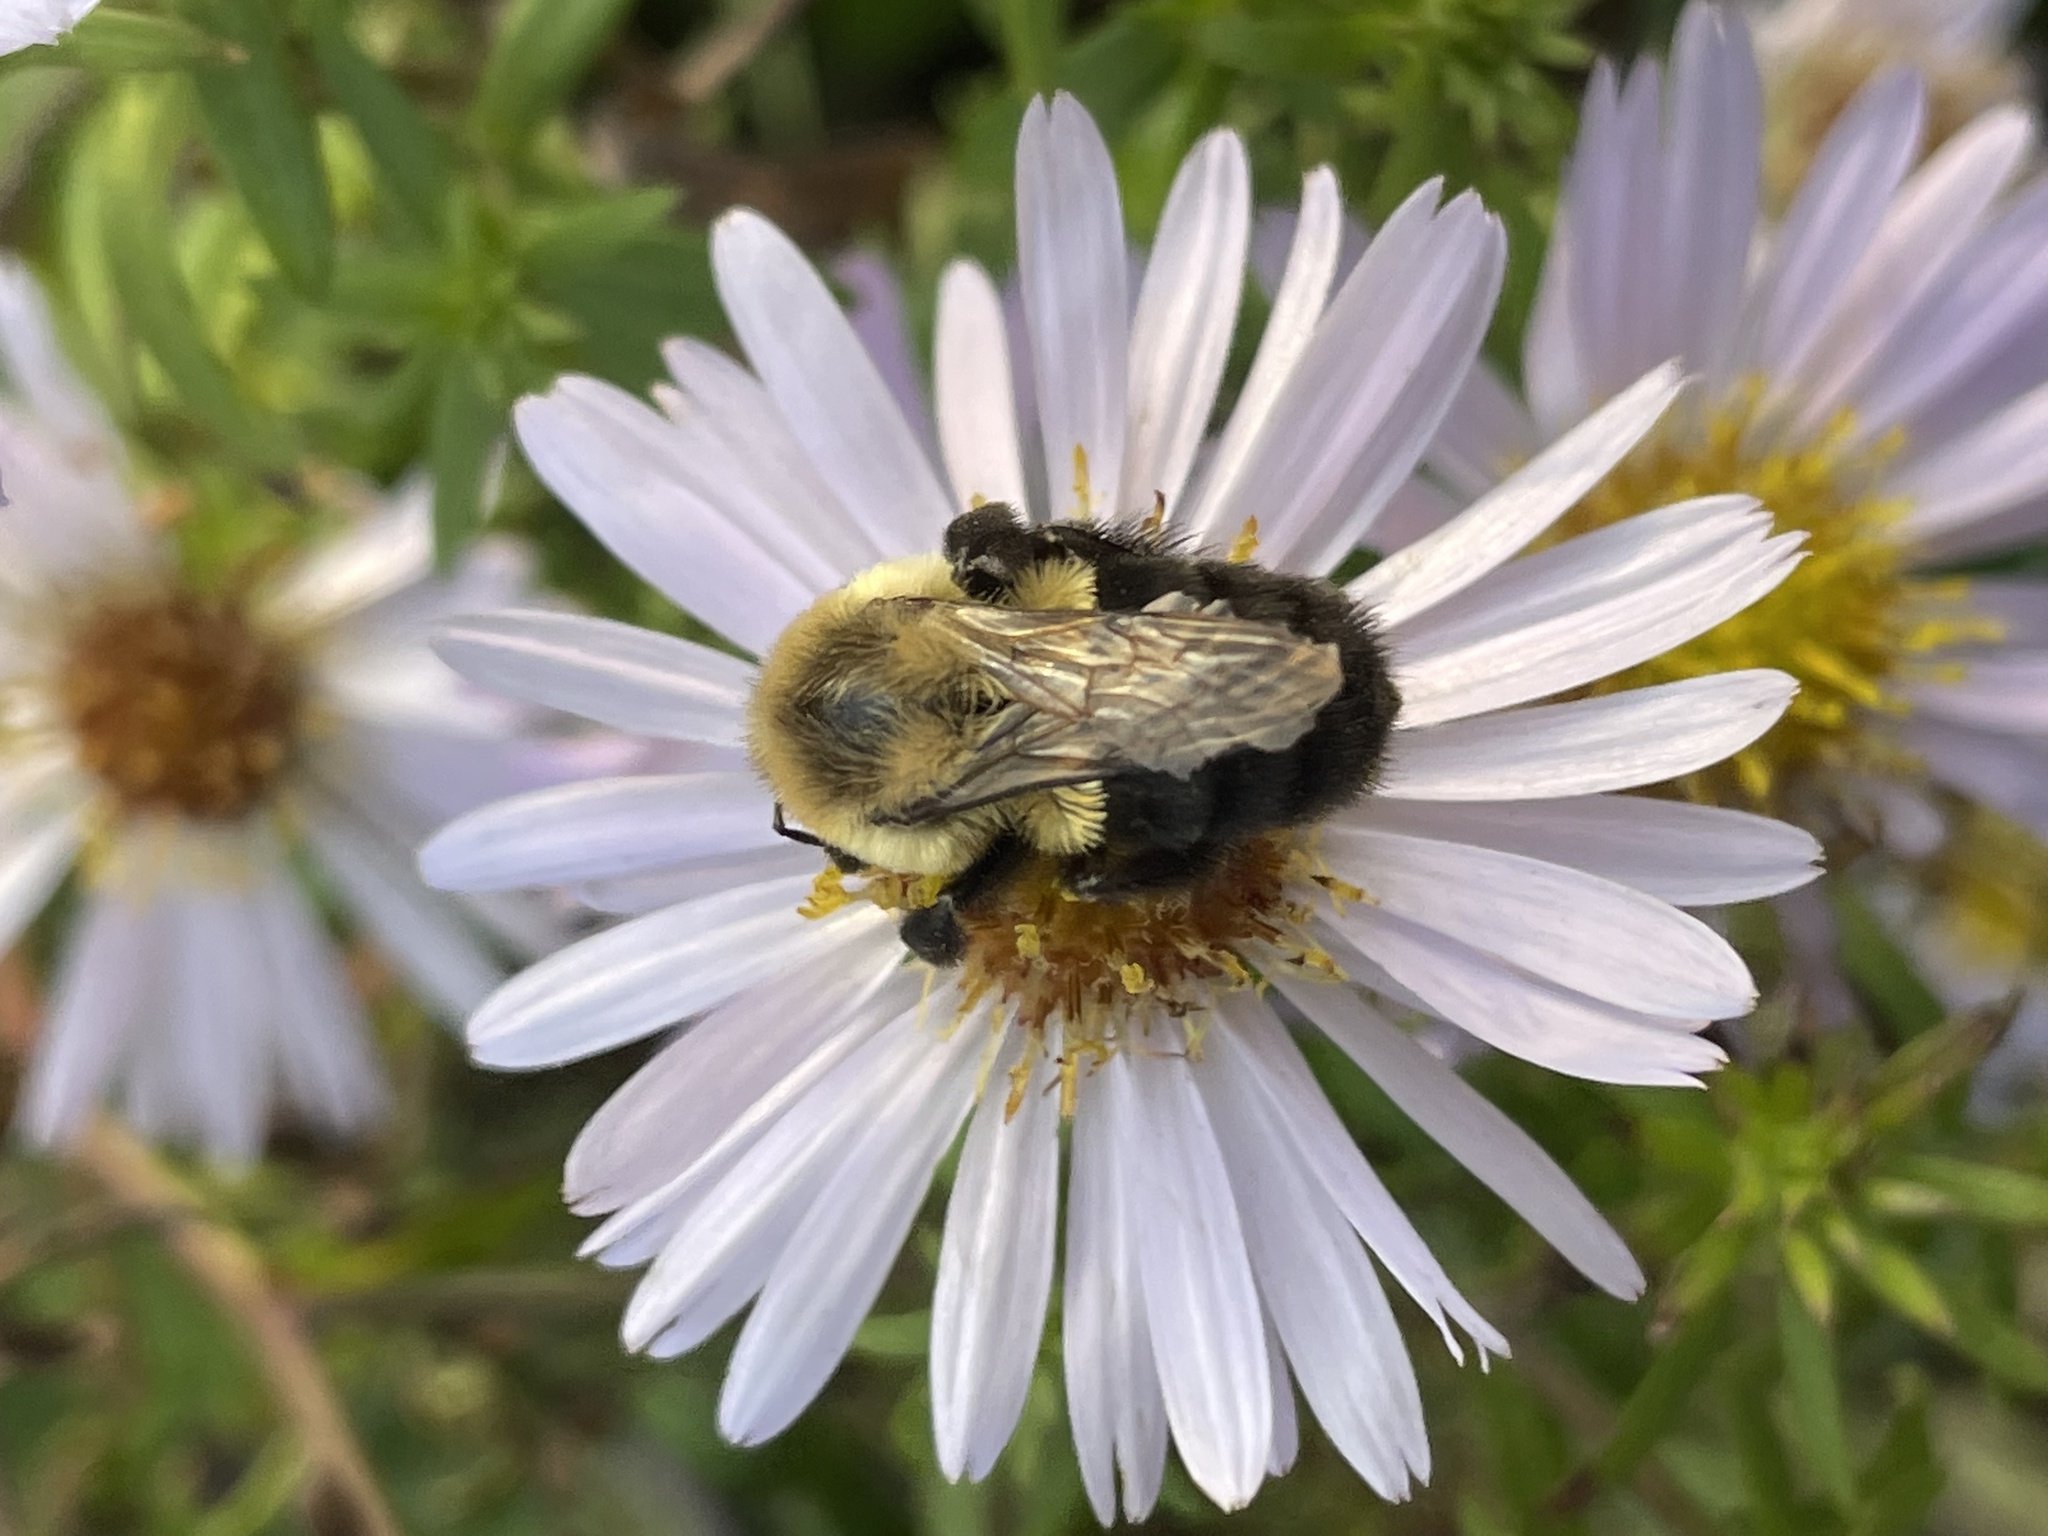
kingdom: Animalia
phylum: Arthropoda
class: Insecta
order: Hymenoptera
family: Apidae
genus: Bombus
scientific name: Bombus impatiens
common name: Common eastern bumble bee
